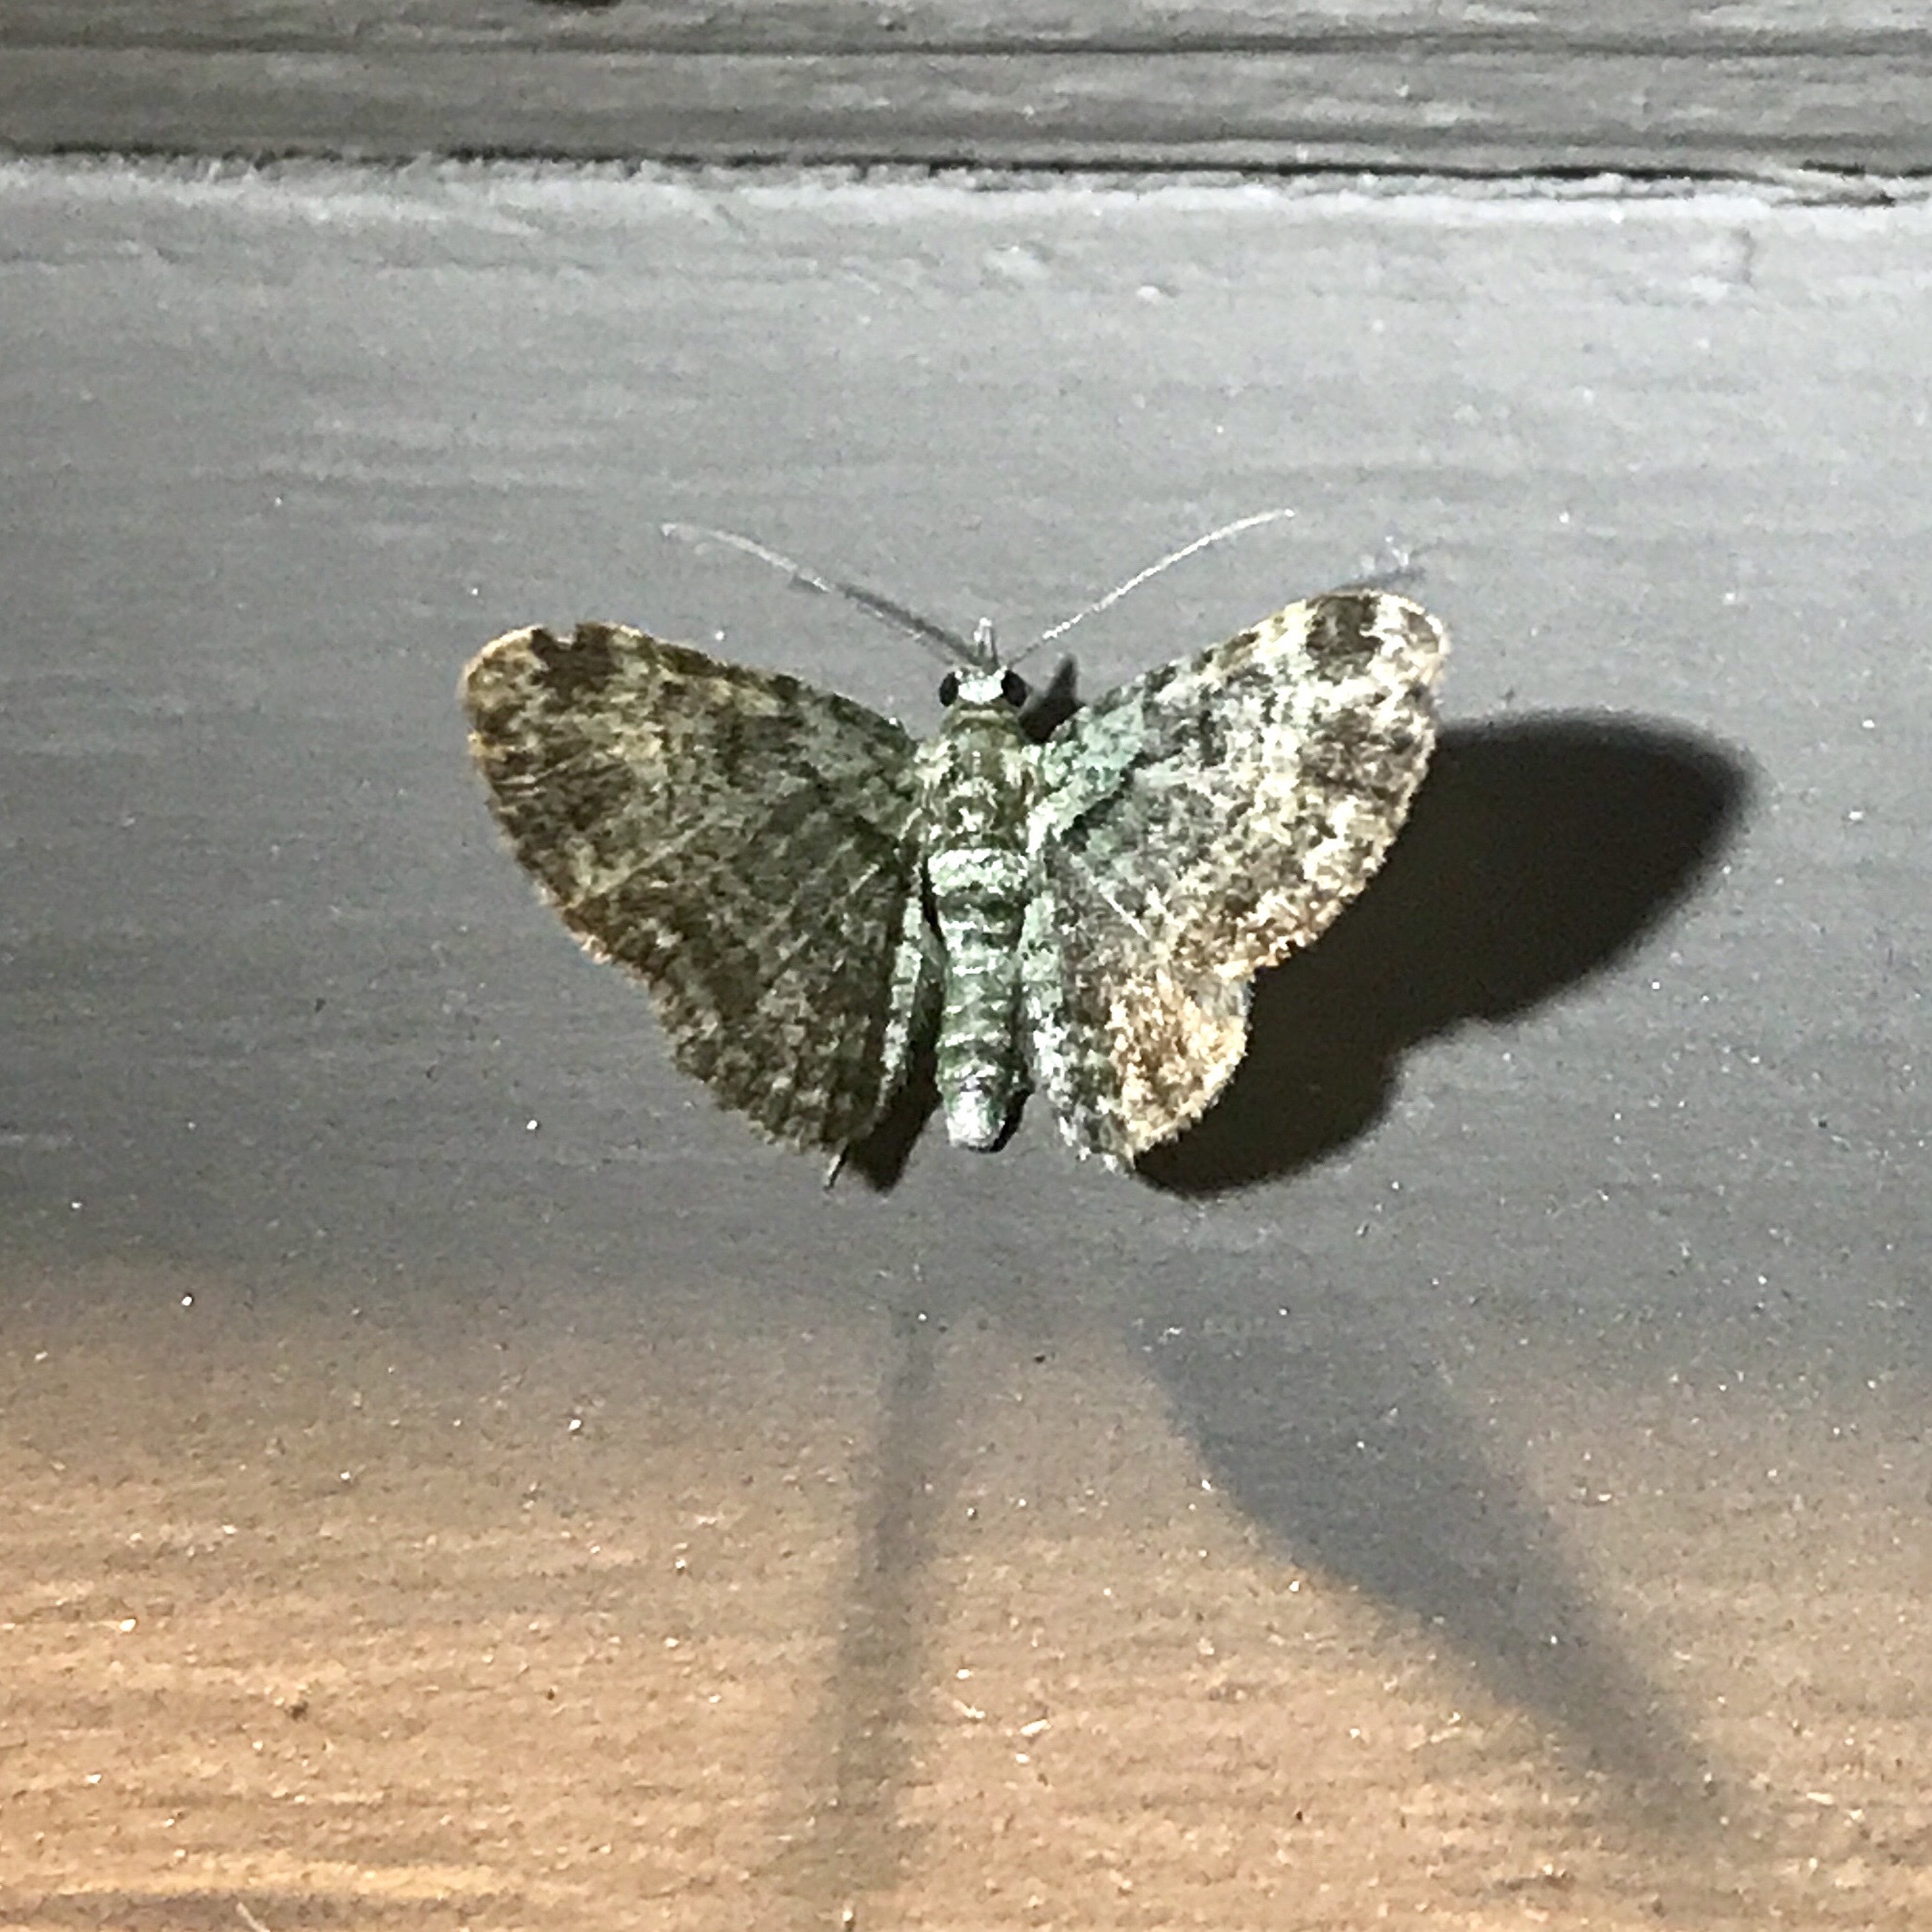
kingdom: Animalia
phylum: Arthropoda
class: Insecta
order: Lepidoptera
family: Geometridae
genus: Pasiphila
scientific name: Pasiphila rectangulata
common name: Green pug
